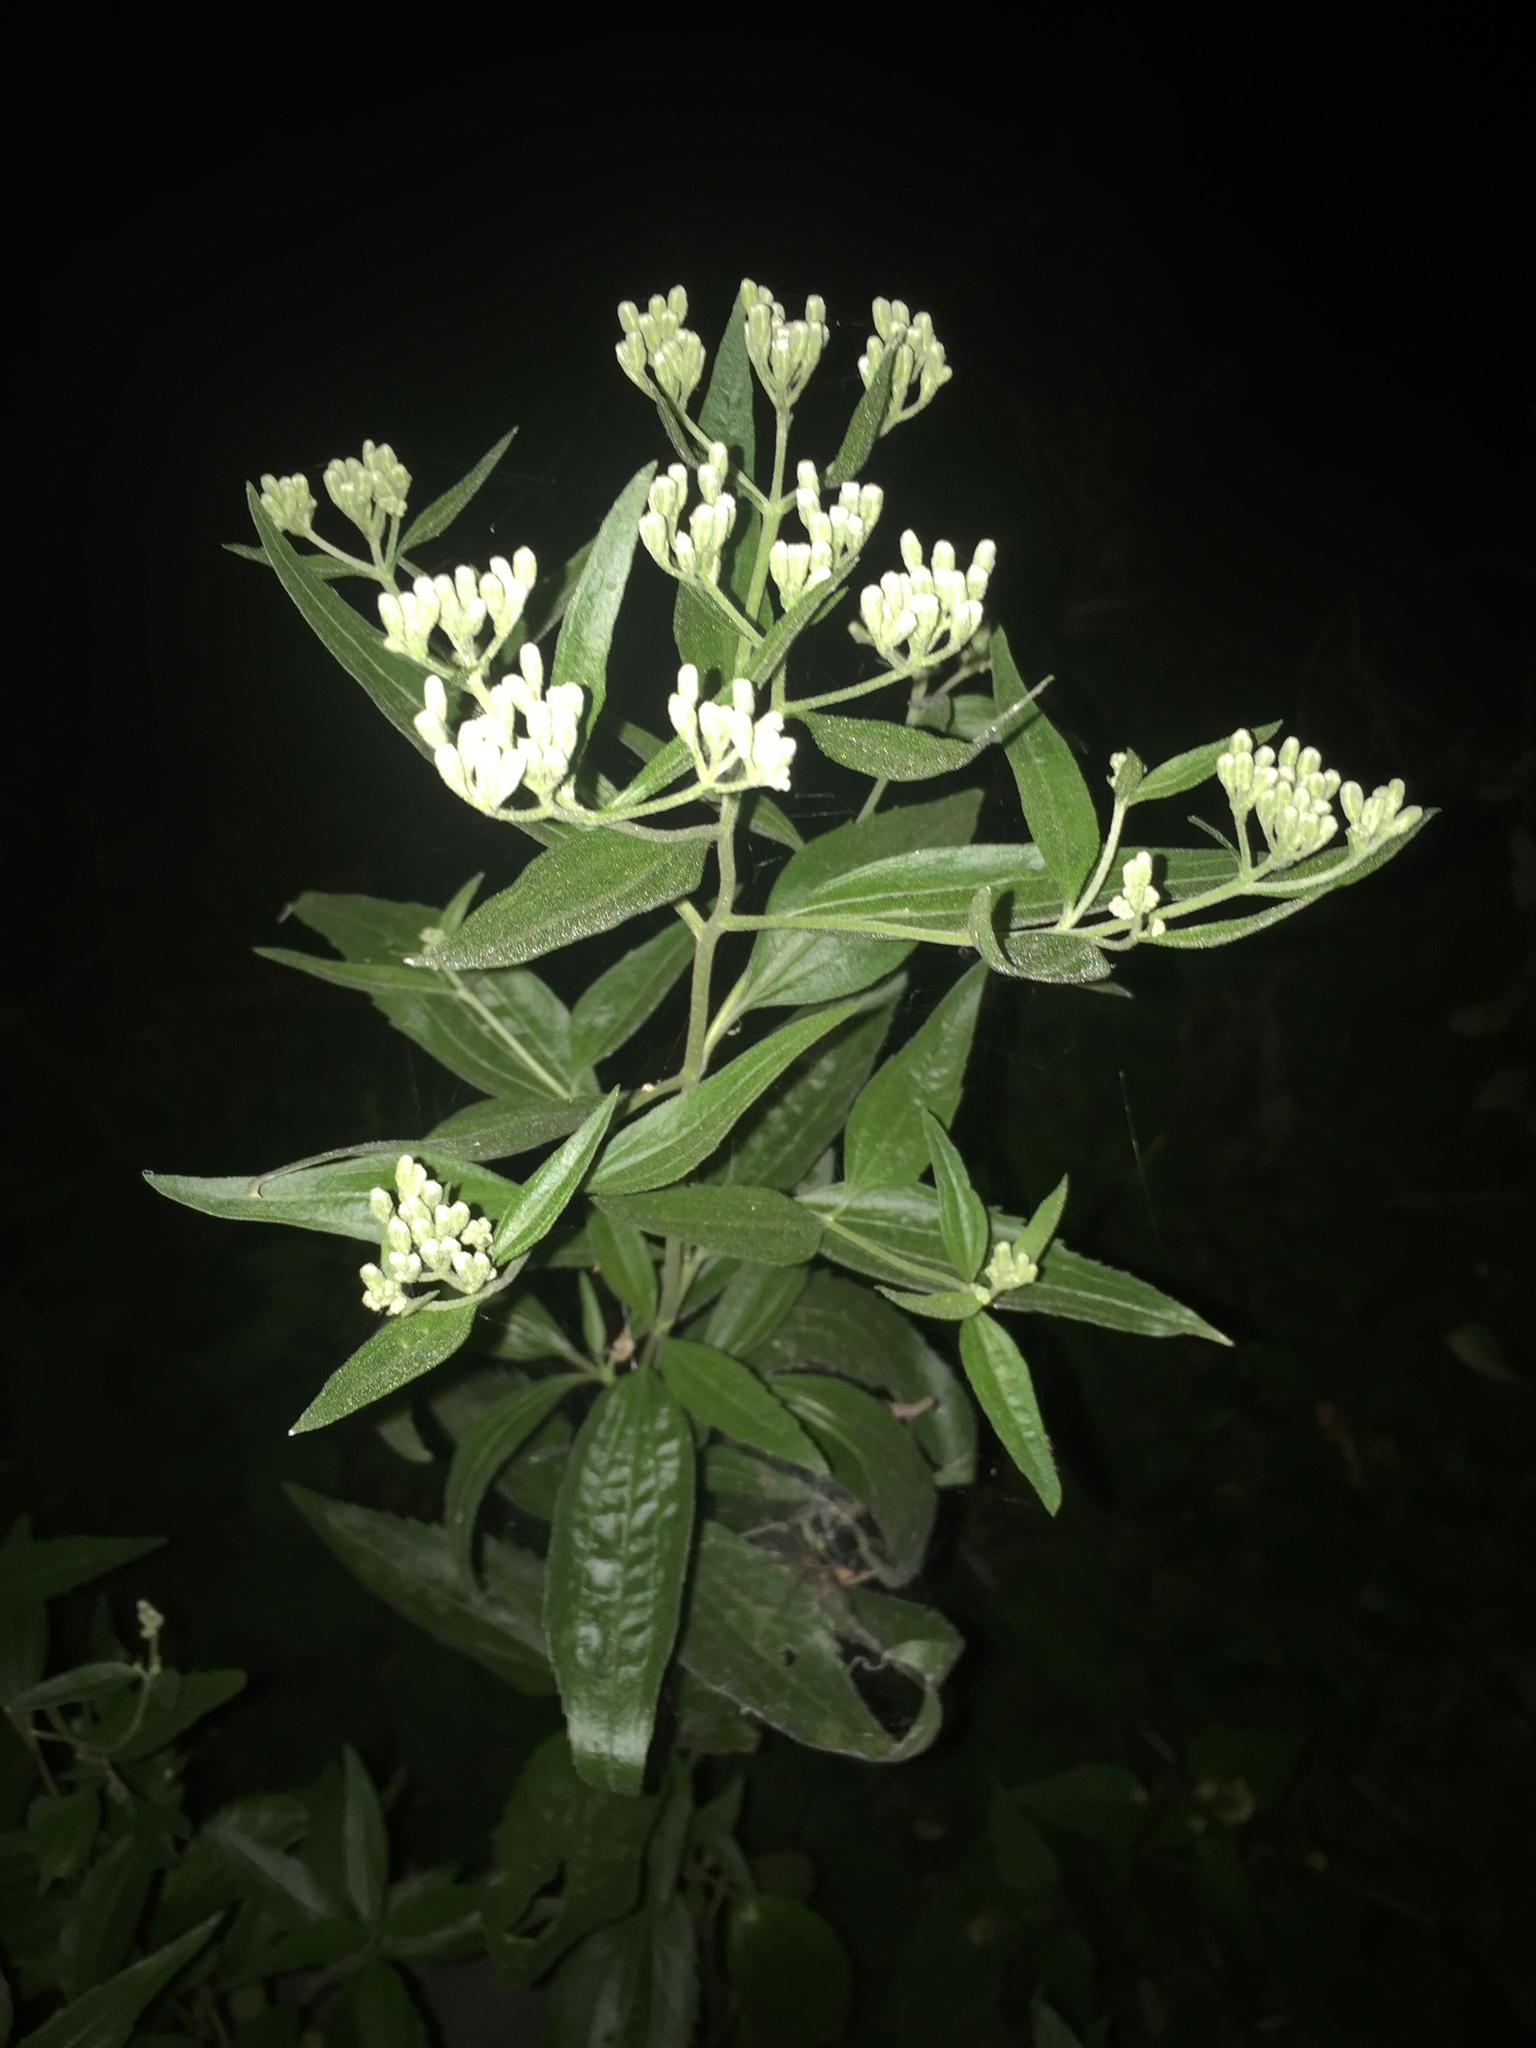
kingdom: Plantae
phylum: Tracheophyta
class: Magnoliopsida
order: Asterales
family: Asteraceae
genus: Eupatorium
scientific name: Eupatorium altissimum
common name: Tall thoroughwort
